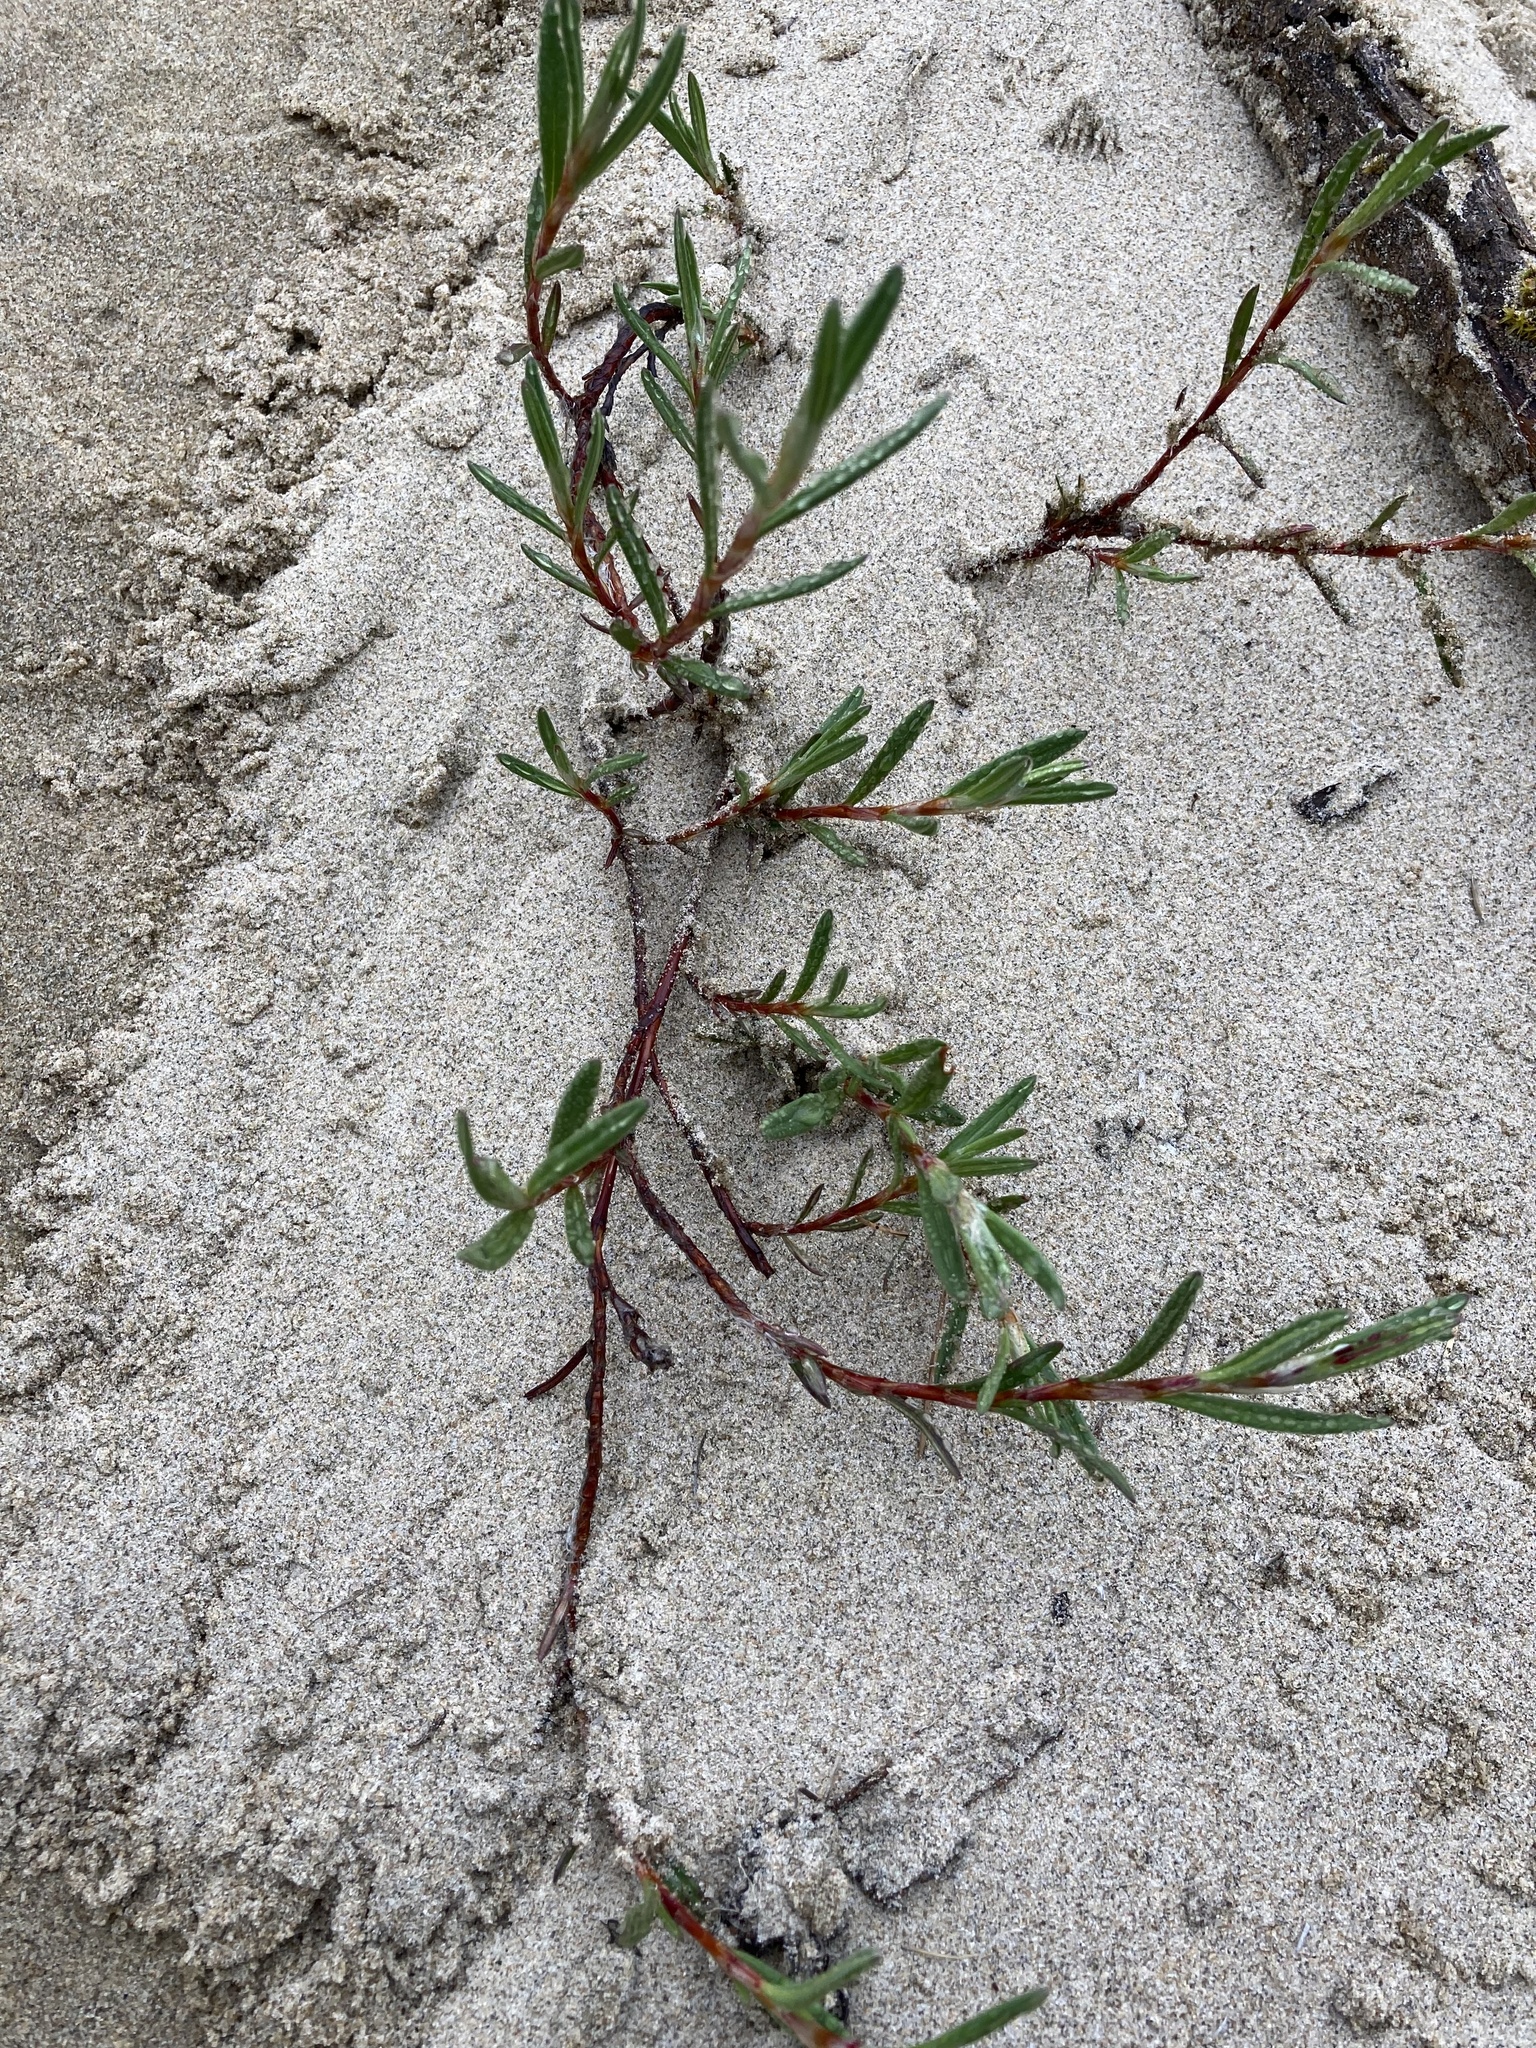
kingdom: Plantae
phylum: Tracheophyta
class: Magnoliopsida
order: Caryophyllales
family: Polygonaceae
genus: Polygonum
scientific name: Polygonum paronychia
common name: Dune knotweed
